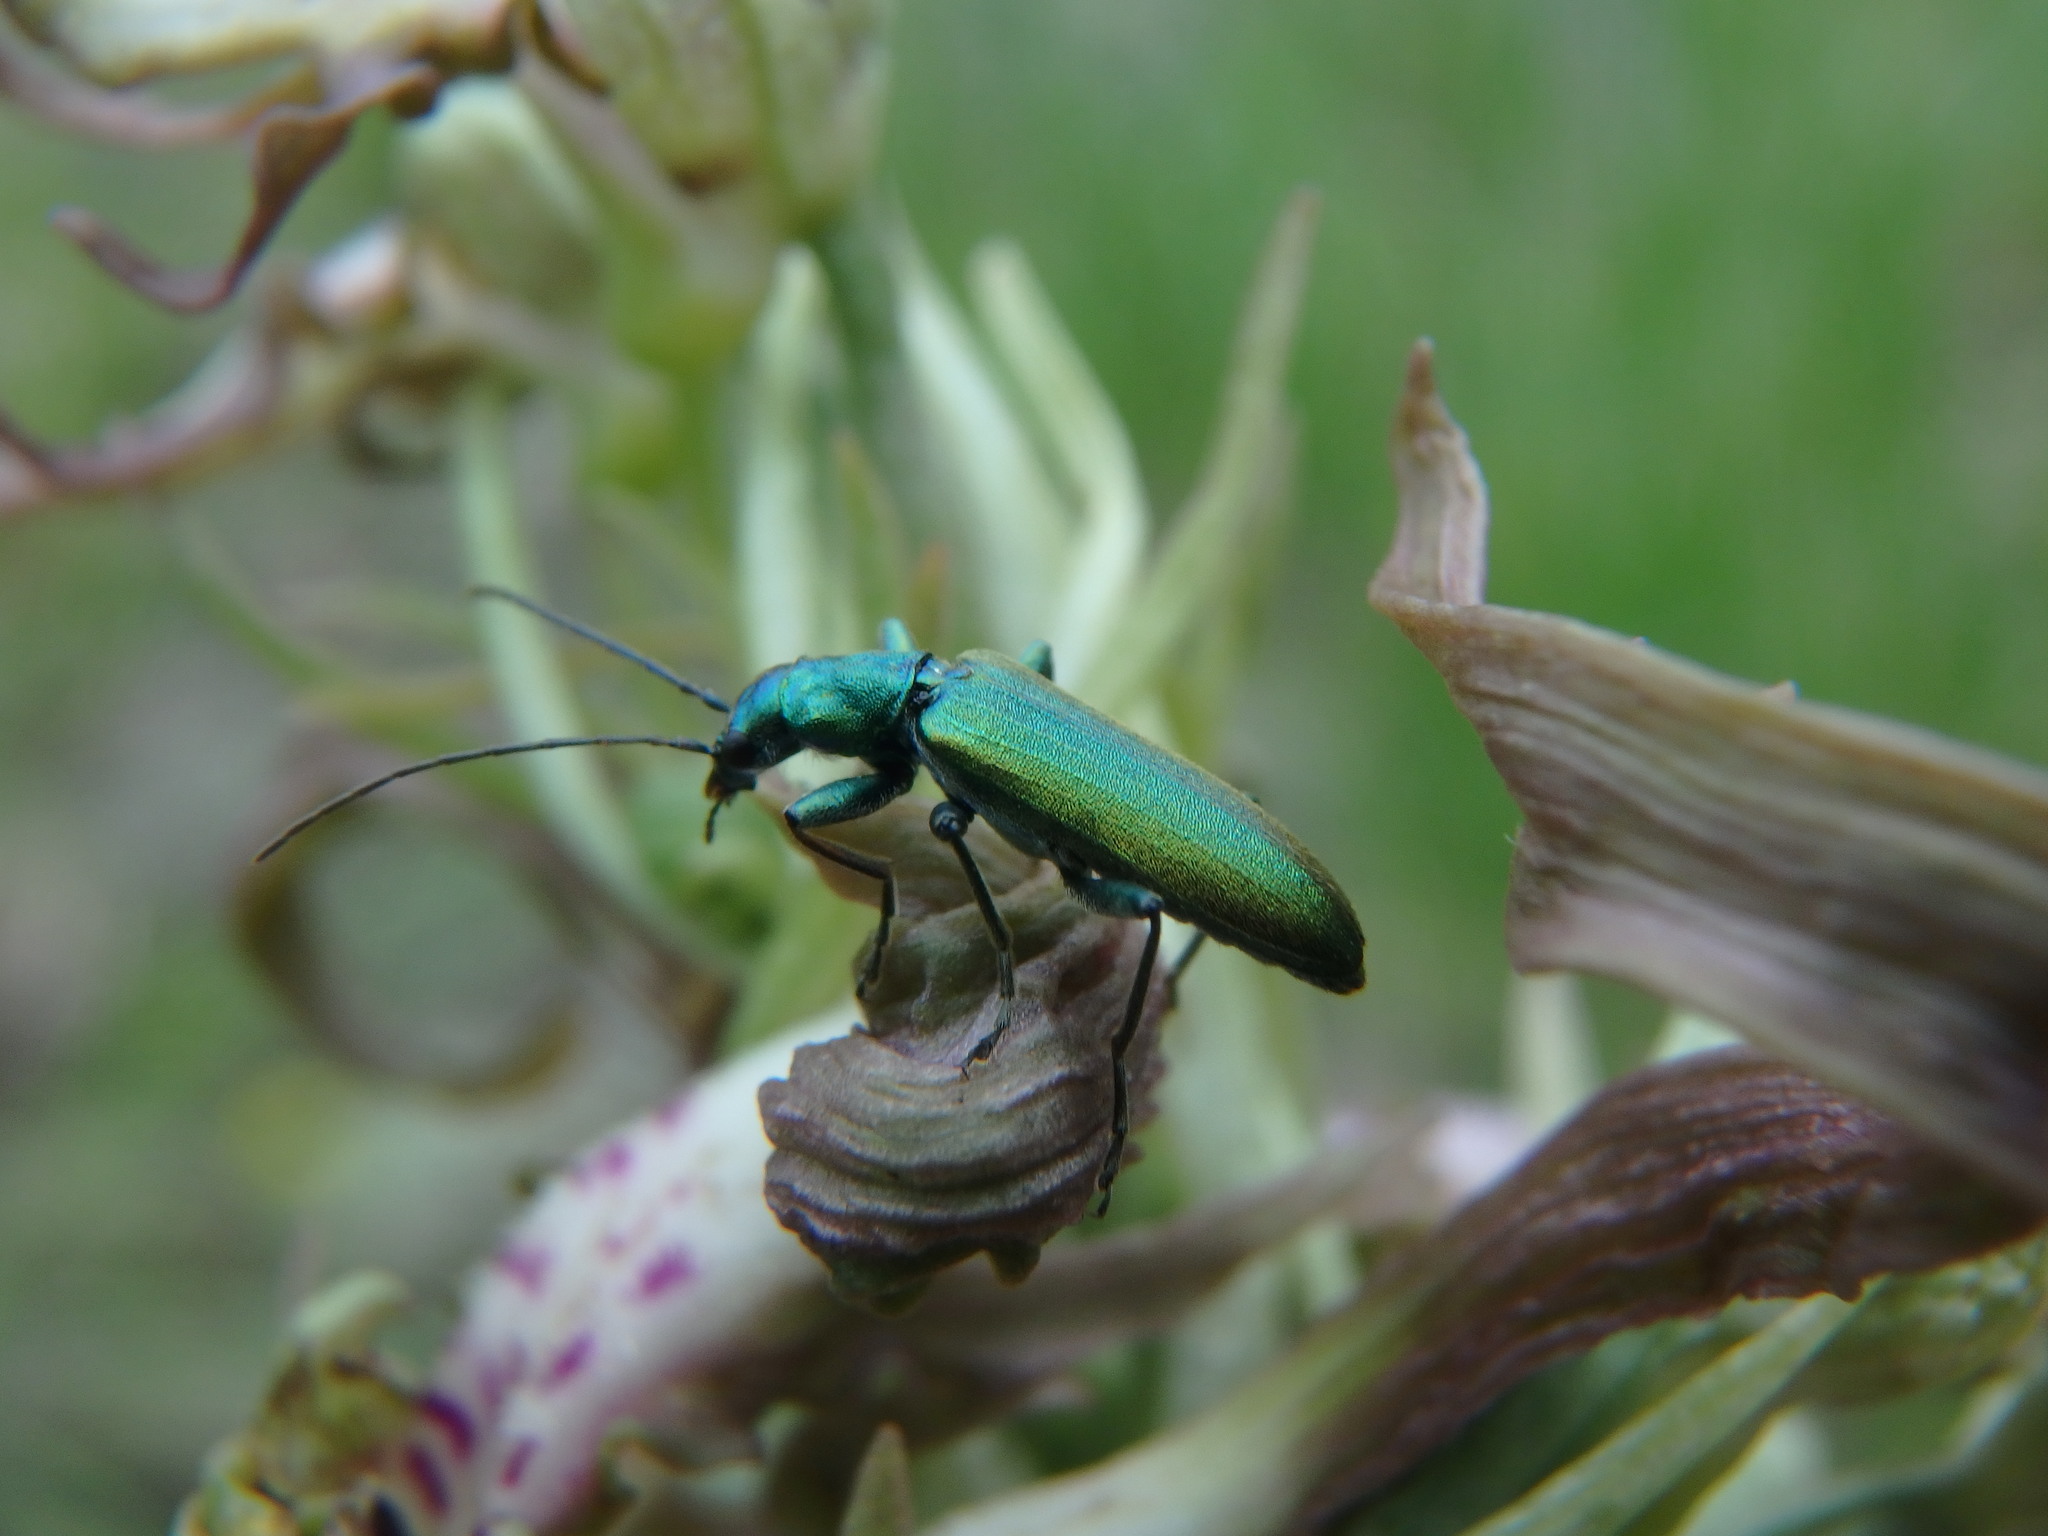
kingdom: Animalia
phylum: Arthropoda
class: Insecta
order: Coleoptera
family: Oedemeridae
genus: Chrysanthia
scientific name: Chrysanthia viridissima
